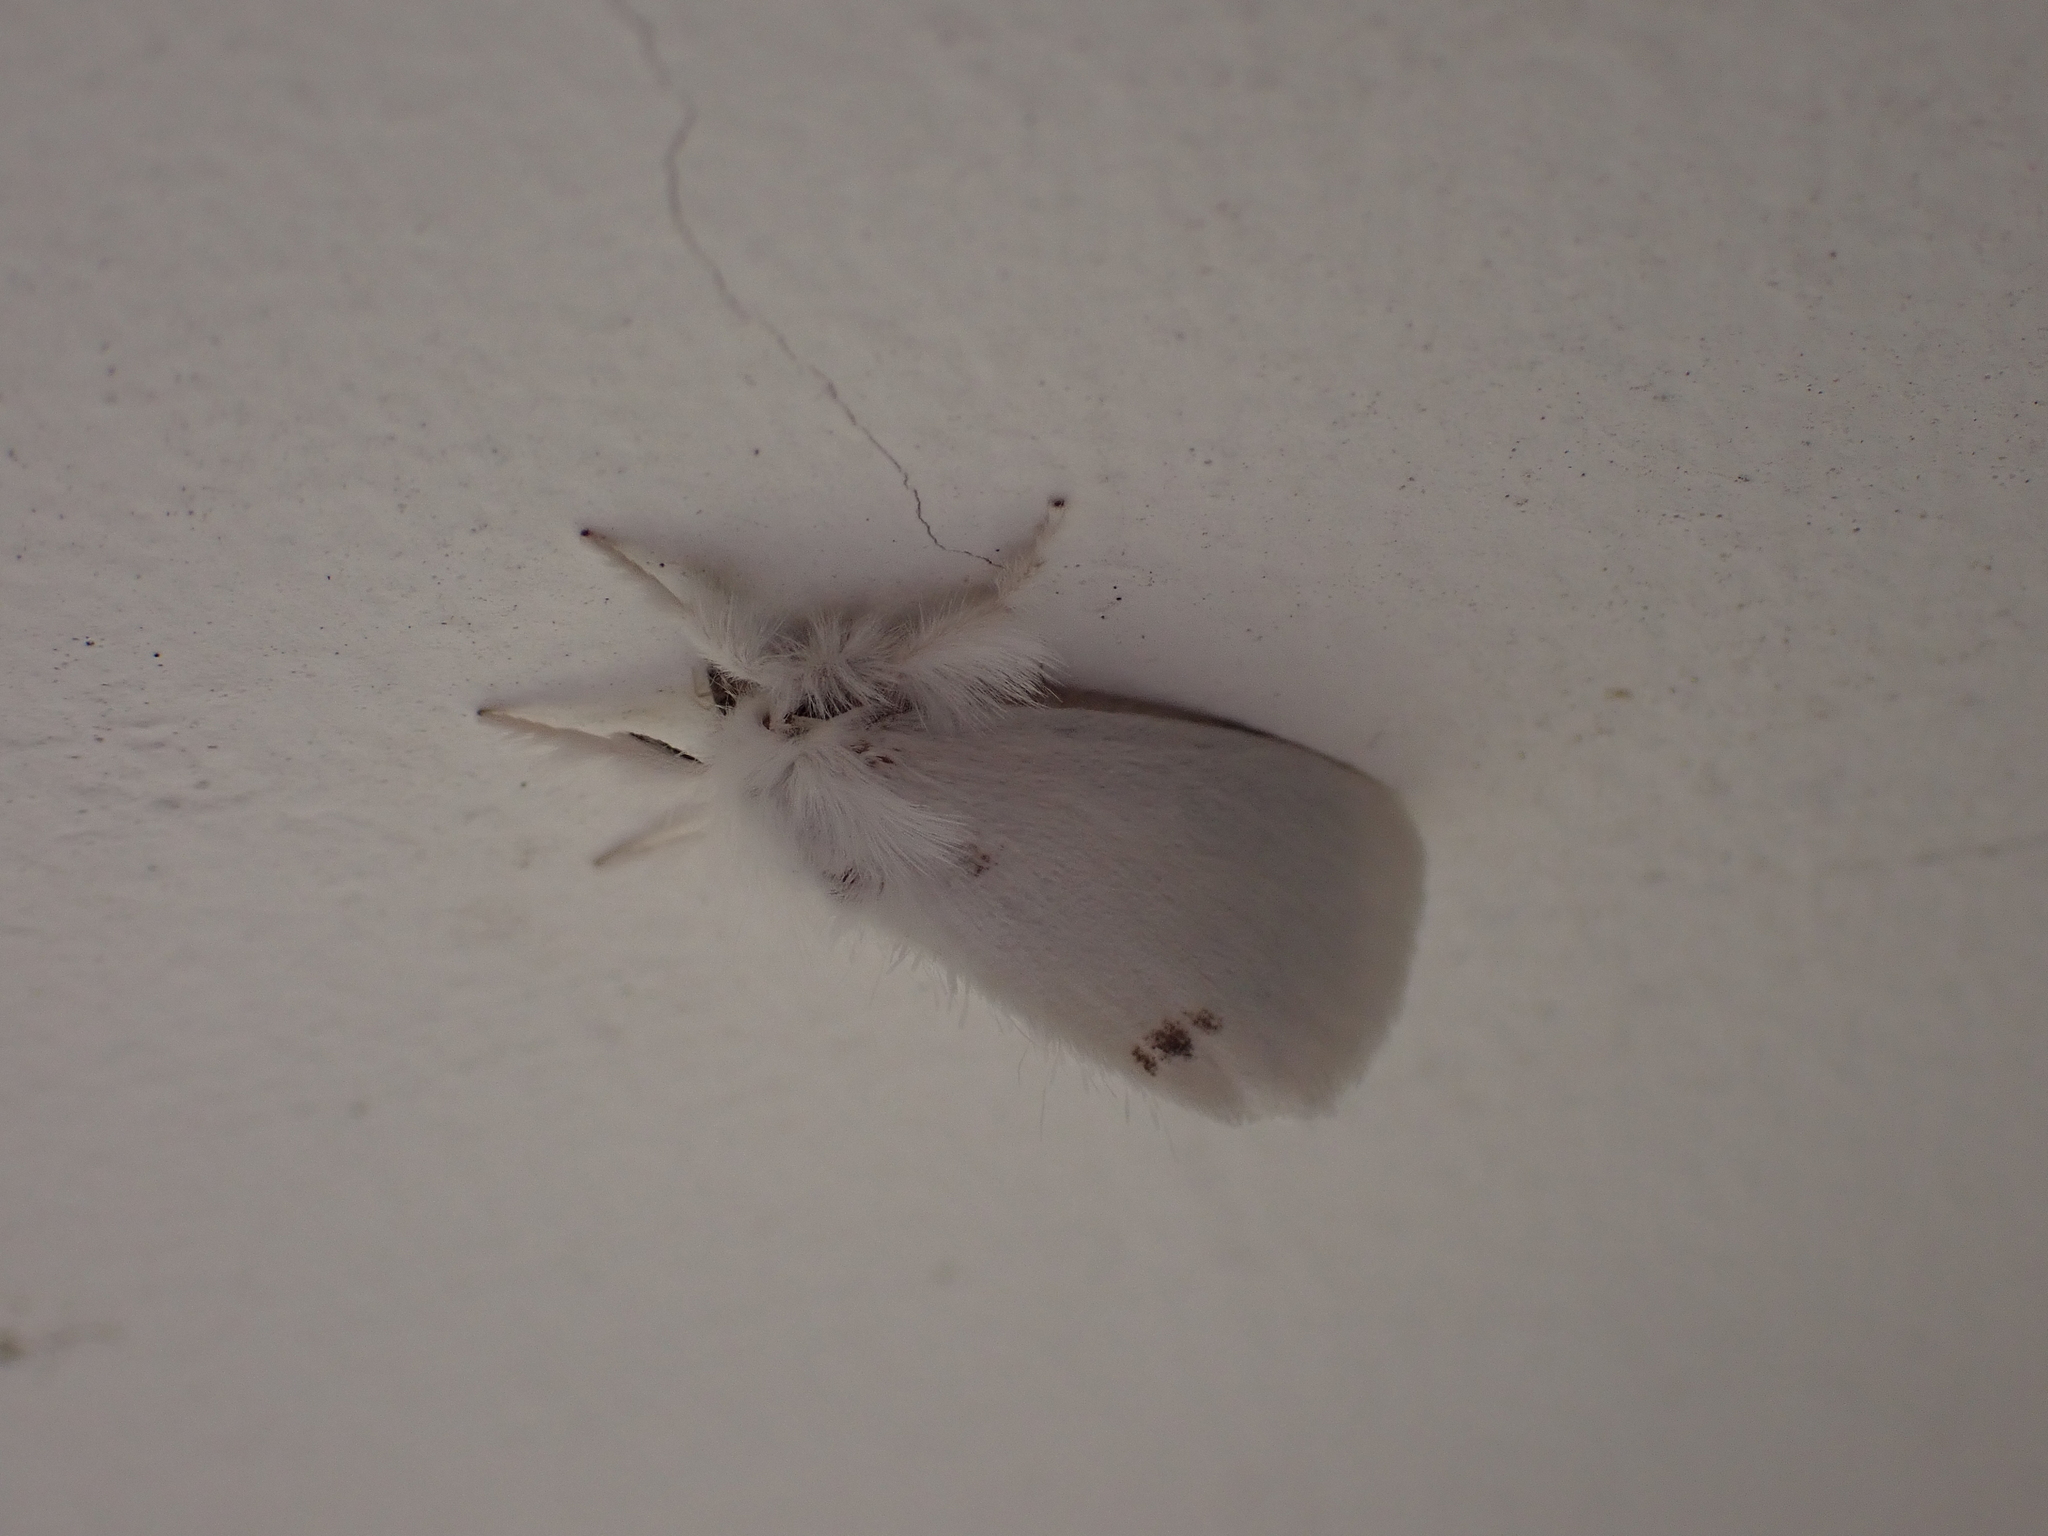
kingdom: Animalia
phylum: Arthropoda
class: Insecta
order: Lepidoptera
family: Erebidae
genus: Sphrageidus
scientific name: Sphrageidus similis
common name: Yellow-tail
